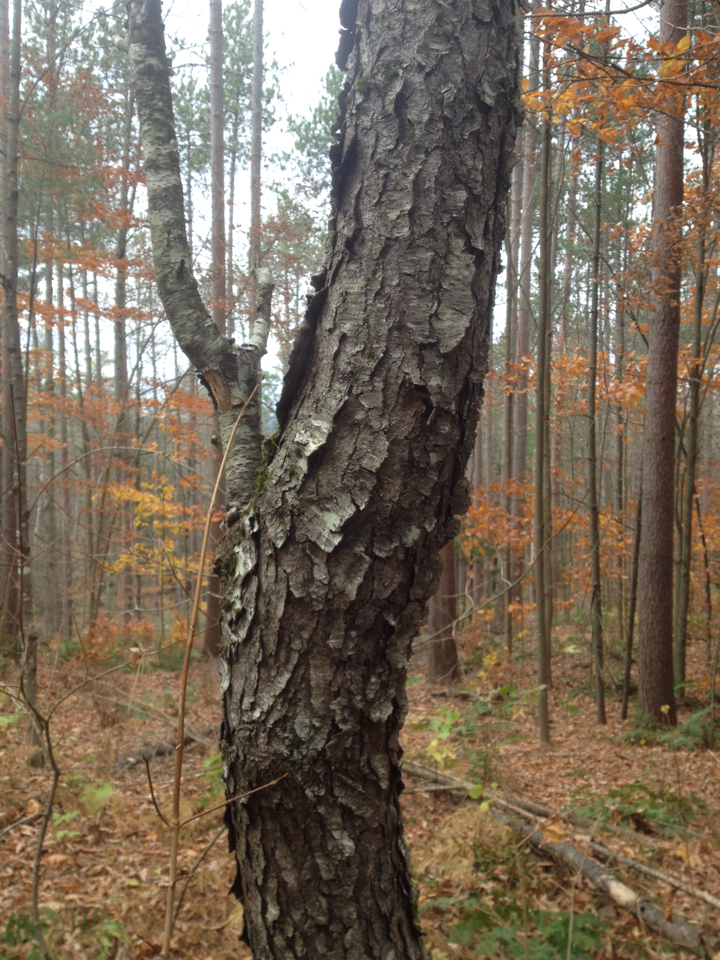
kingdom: Plantae
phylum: Tracheophyta
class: Magnoliopsida
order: Rosales
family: Rosaceae
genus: Prunus
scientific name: Prunus serotina
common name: Black cherry
